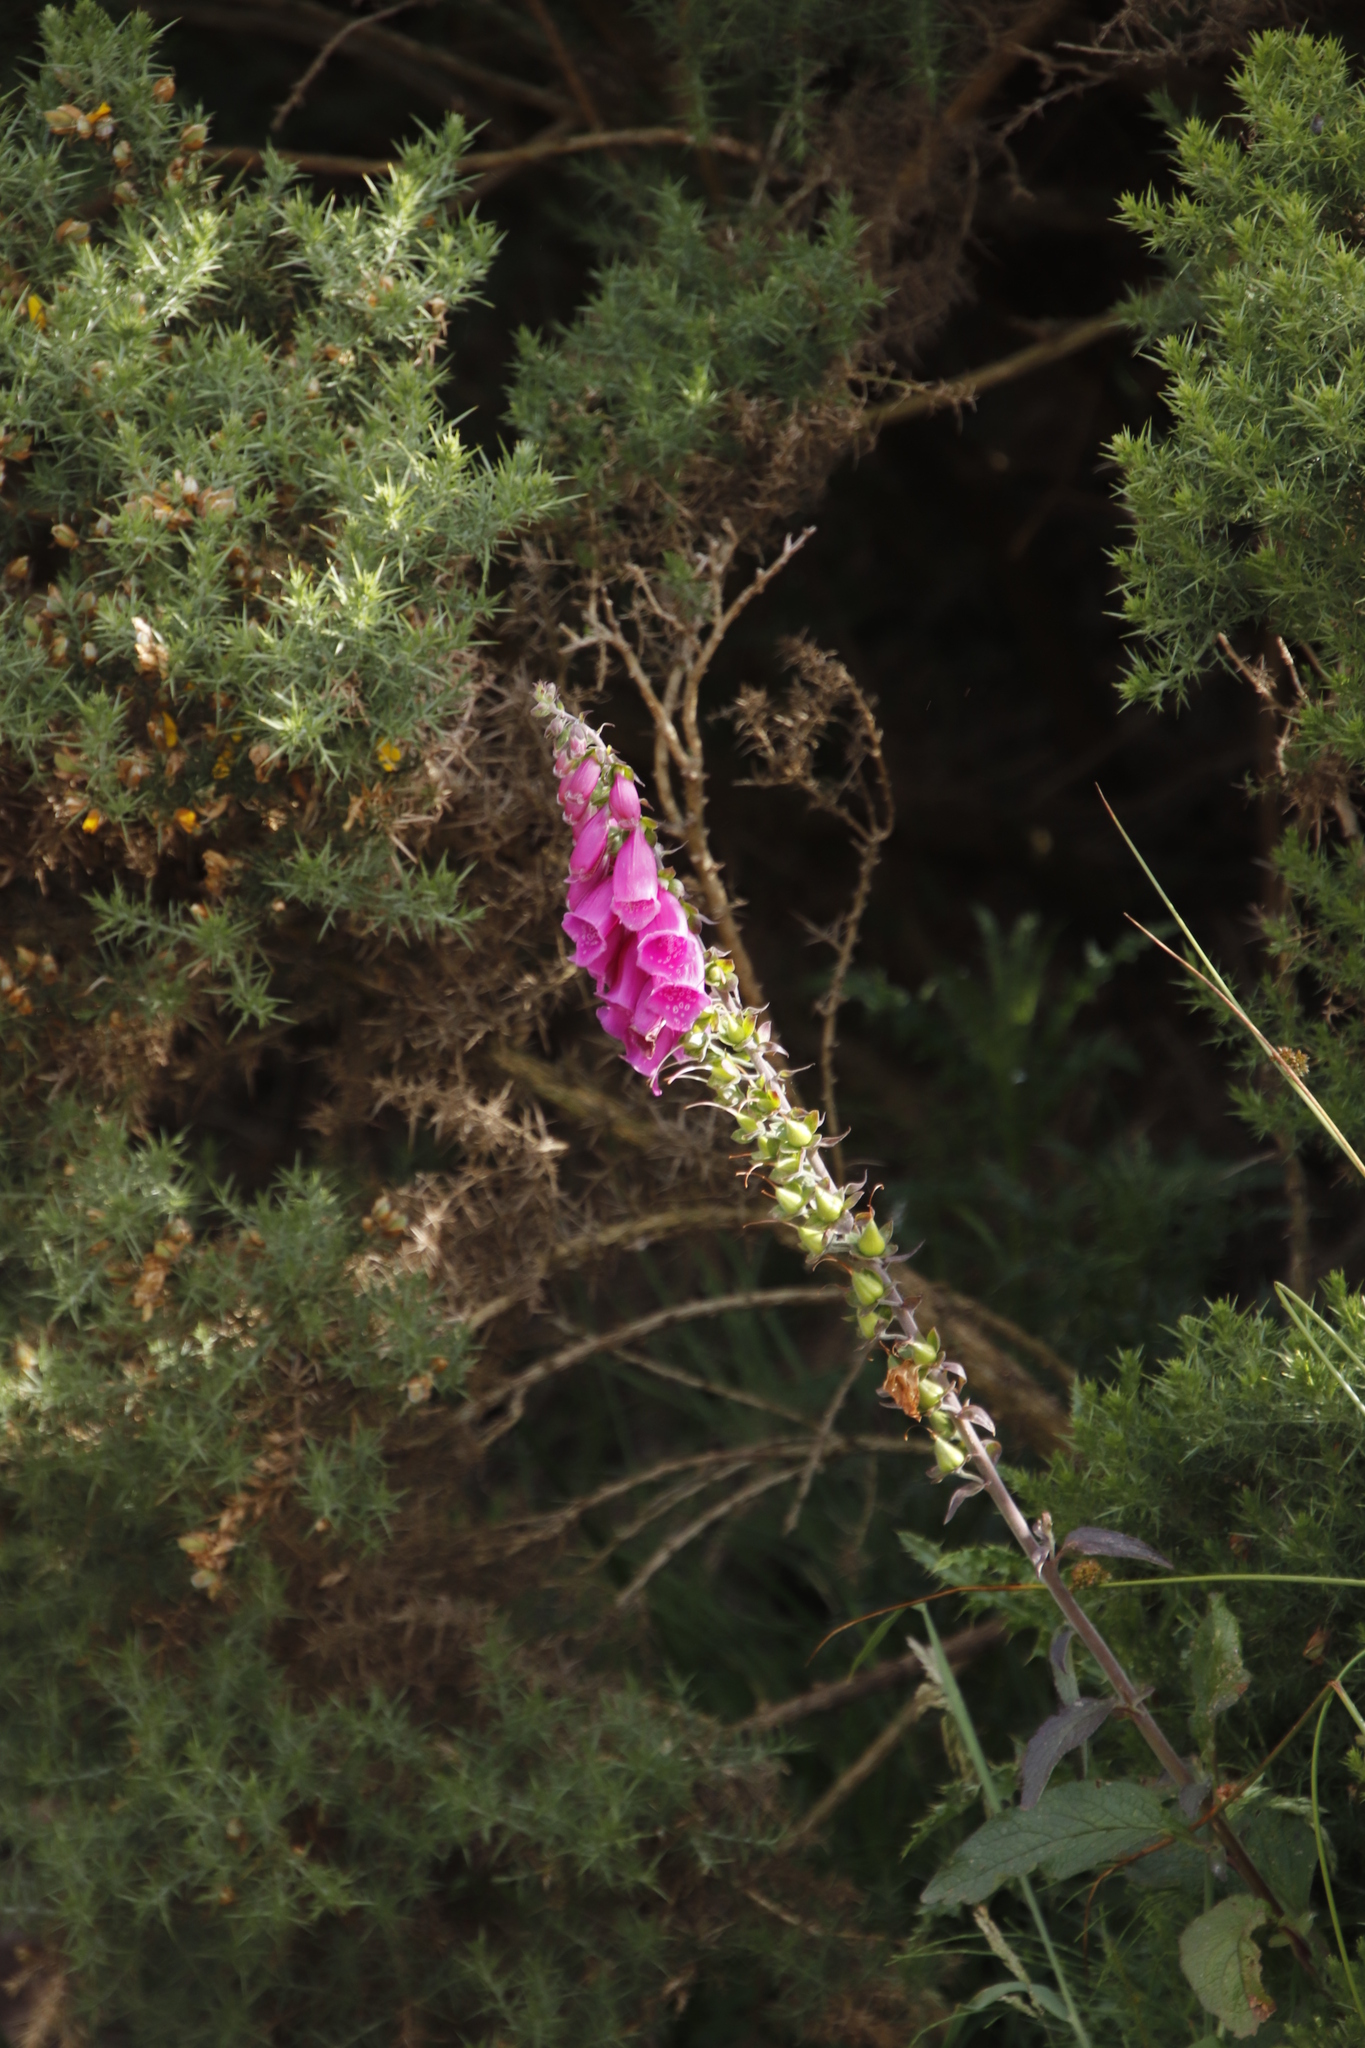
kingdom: Plantae
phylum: Tracheophyta
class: Magnoliopsida
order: Lamiales
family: Plantaginaceae
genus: Digitalis
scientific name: Digitalis purpurea
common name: Foxglove
